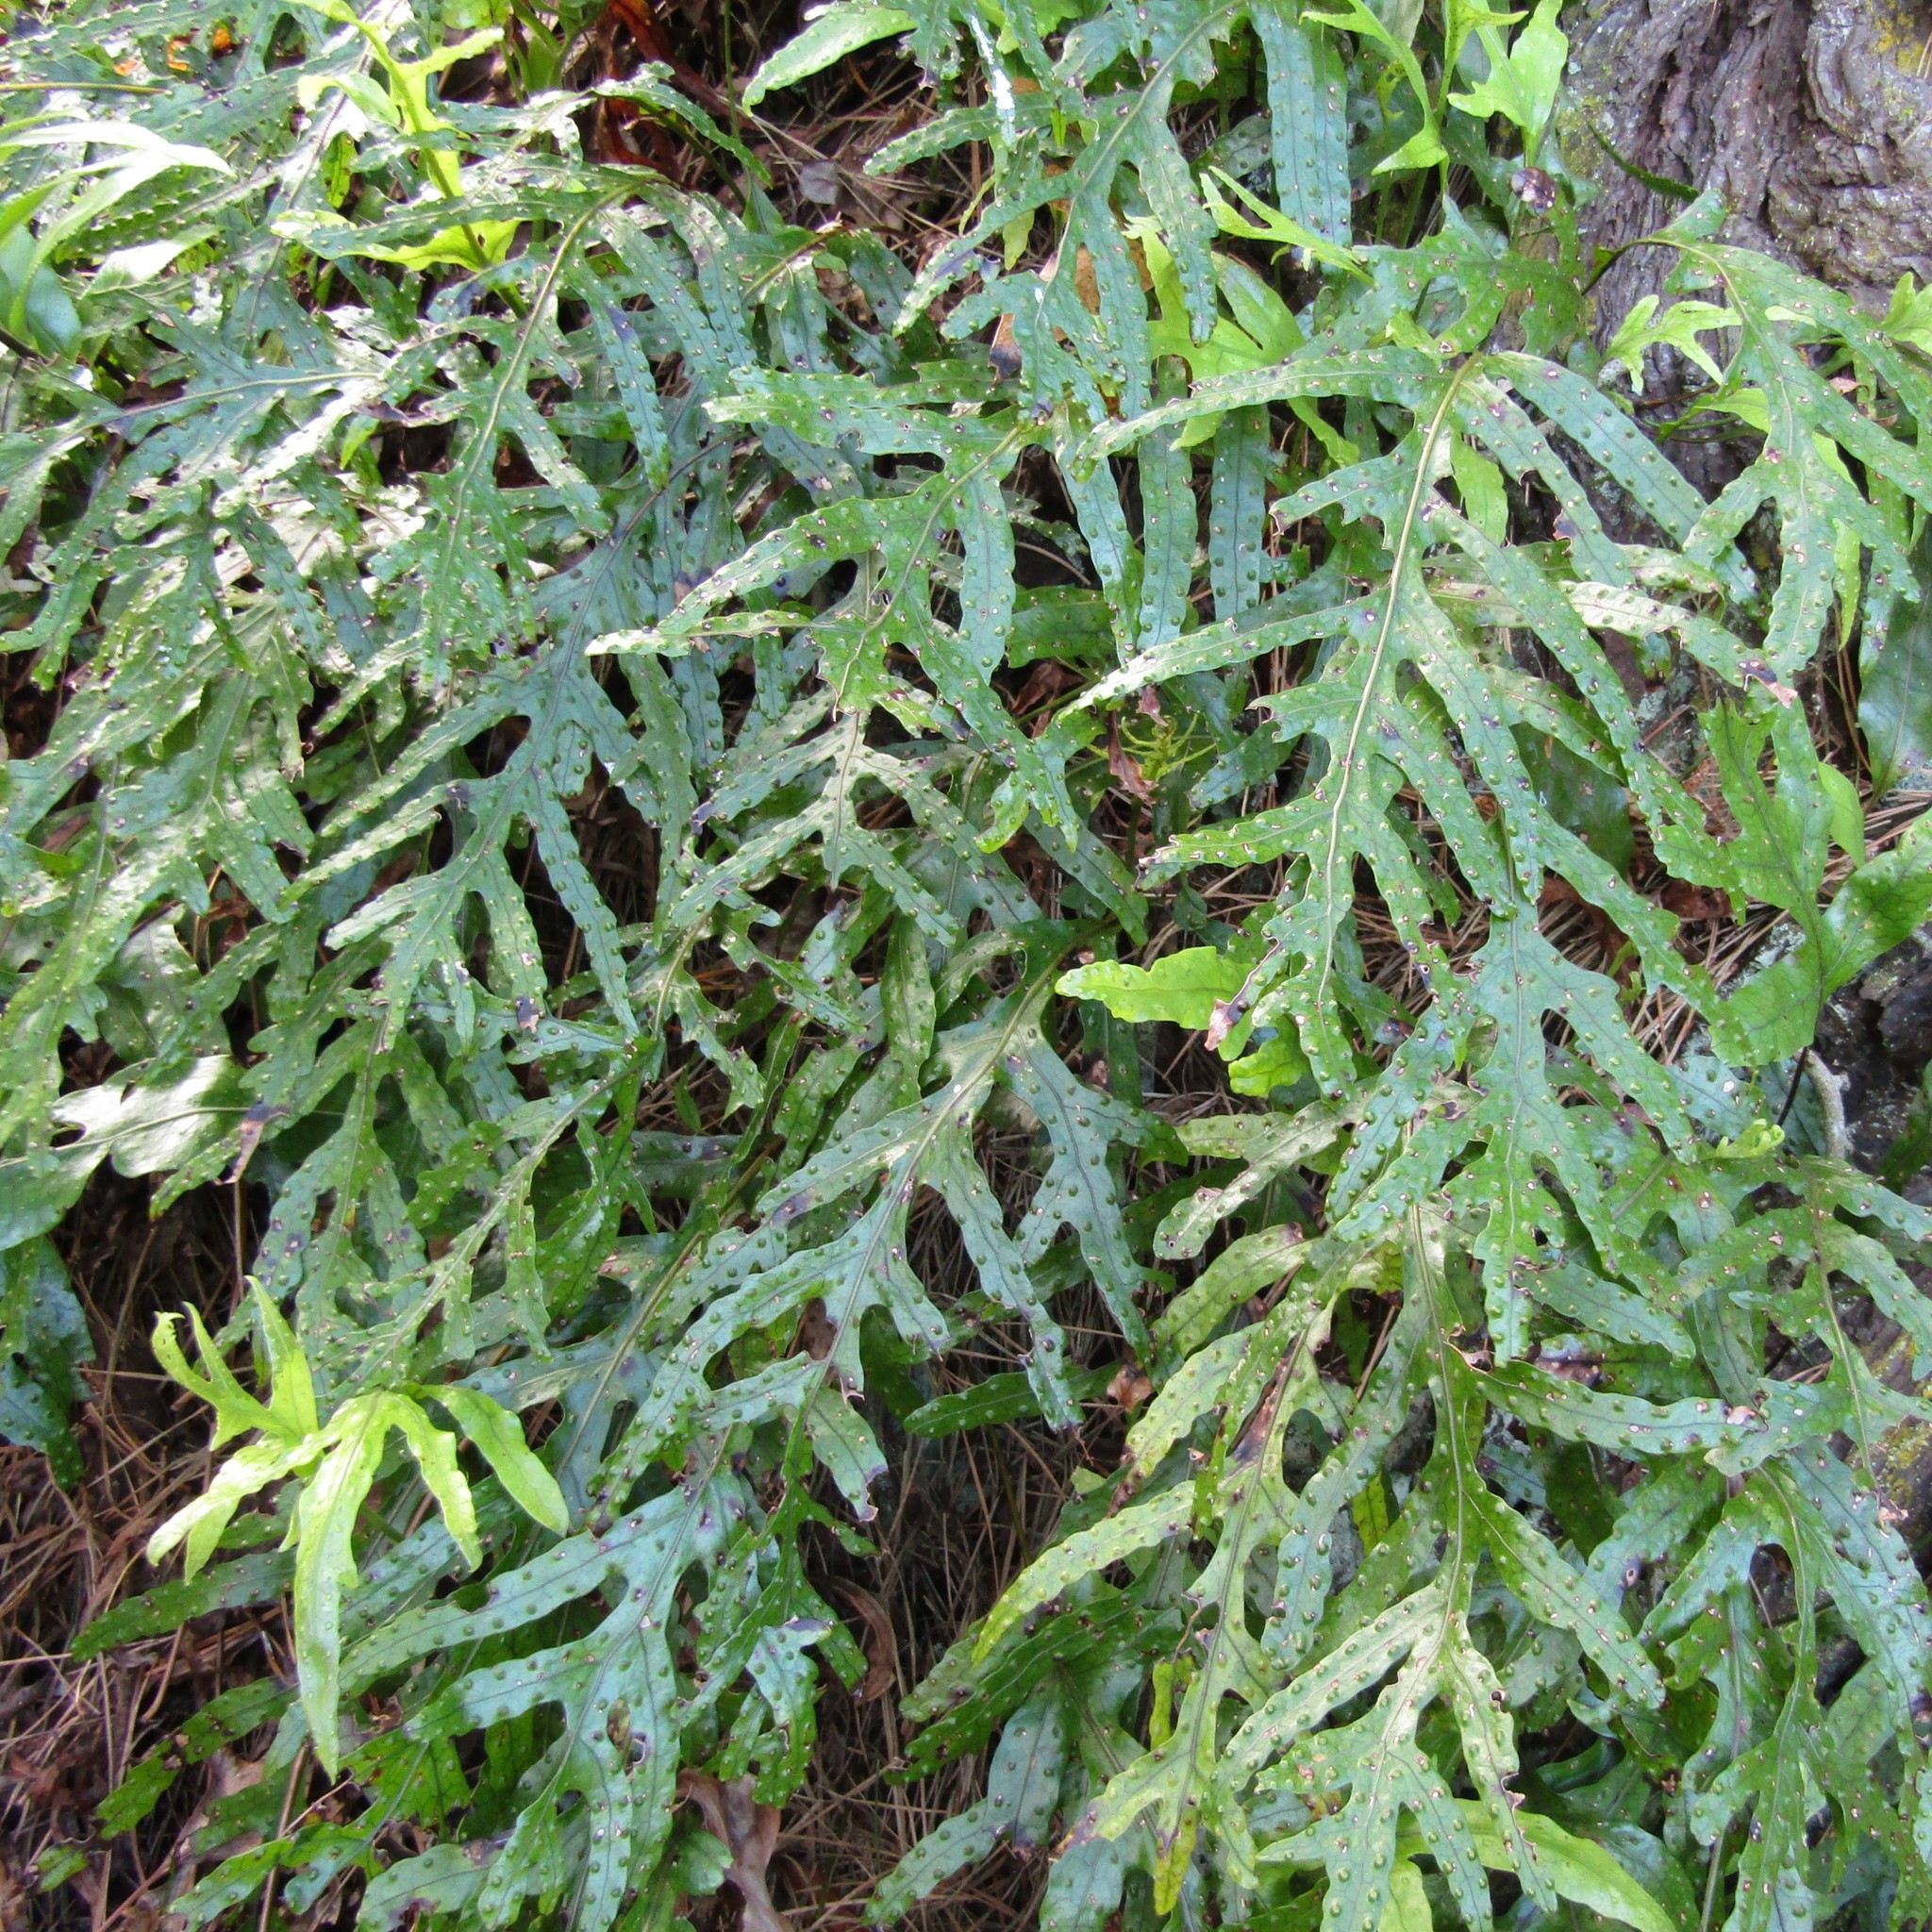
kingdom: Plantae
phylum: Tracheophyta
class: Polypodiopsida
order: Polypodiales
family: Polypodiaceae
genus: Lecanopteris
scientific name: Lecanopteris pustulata
